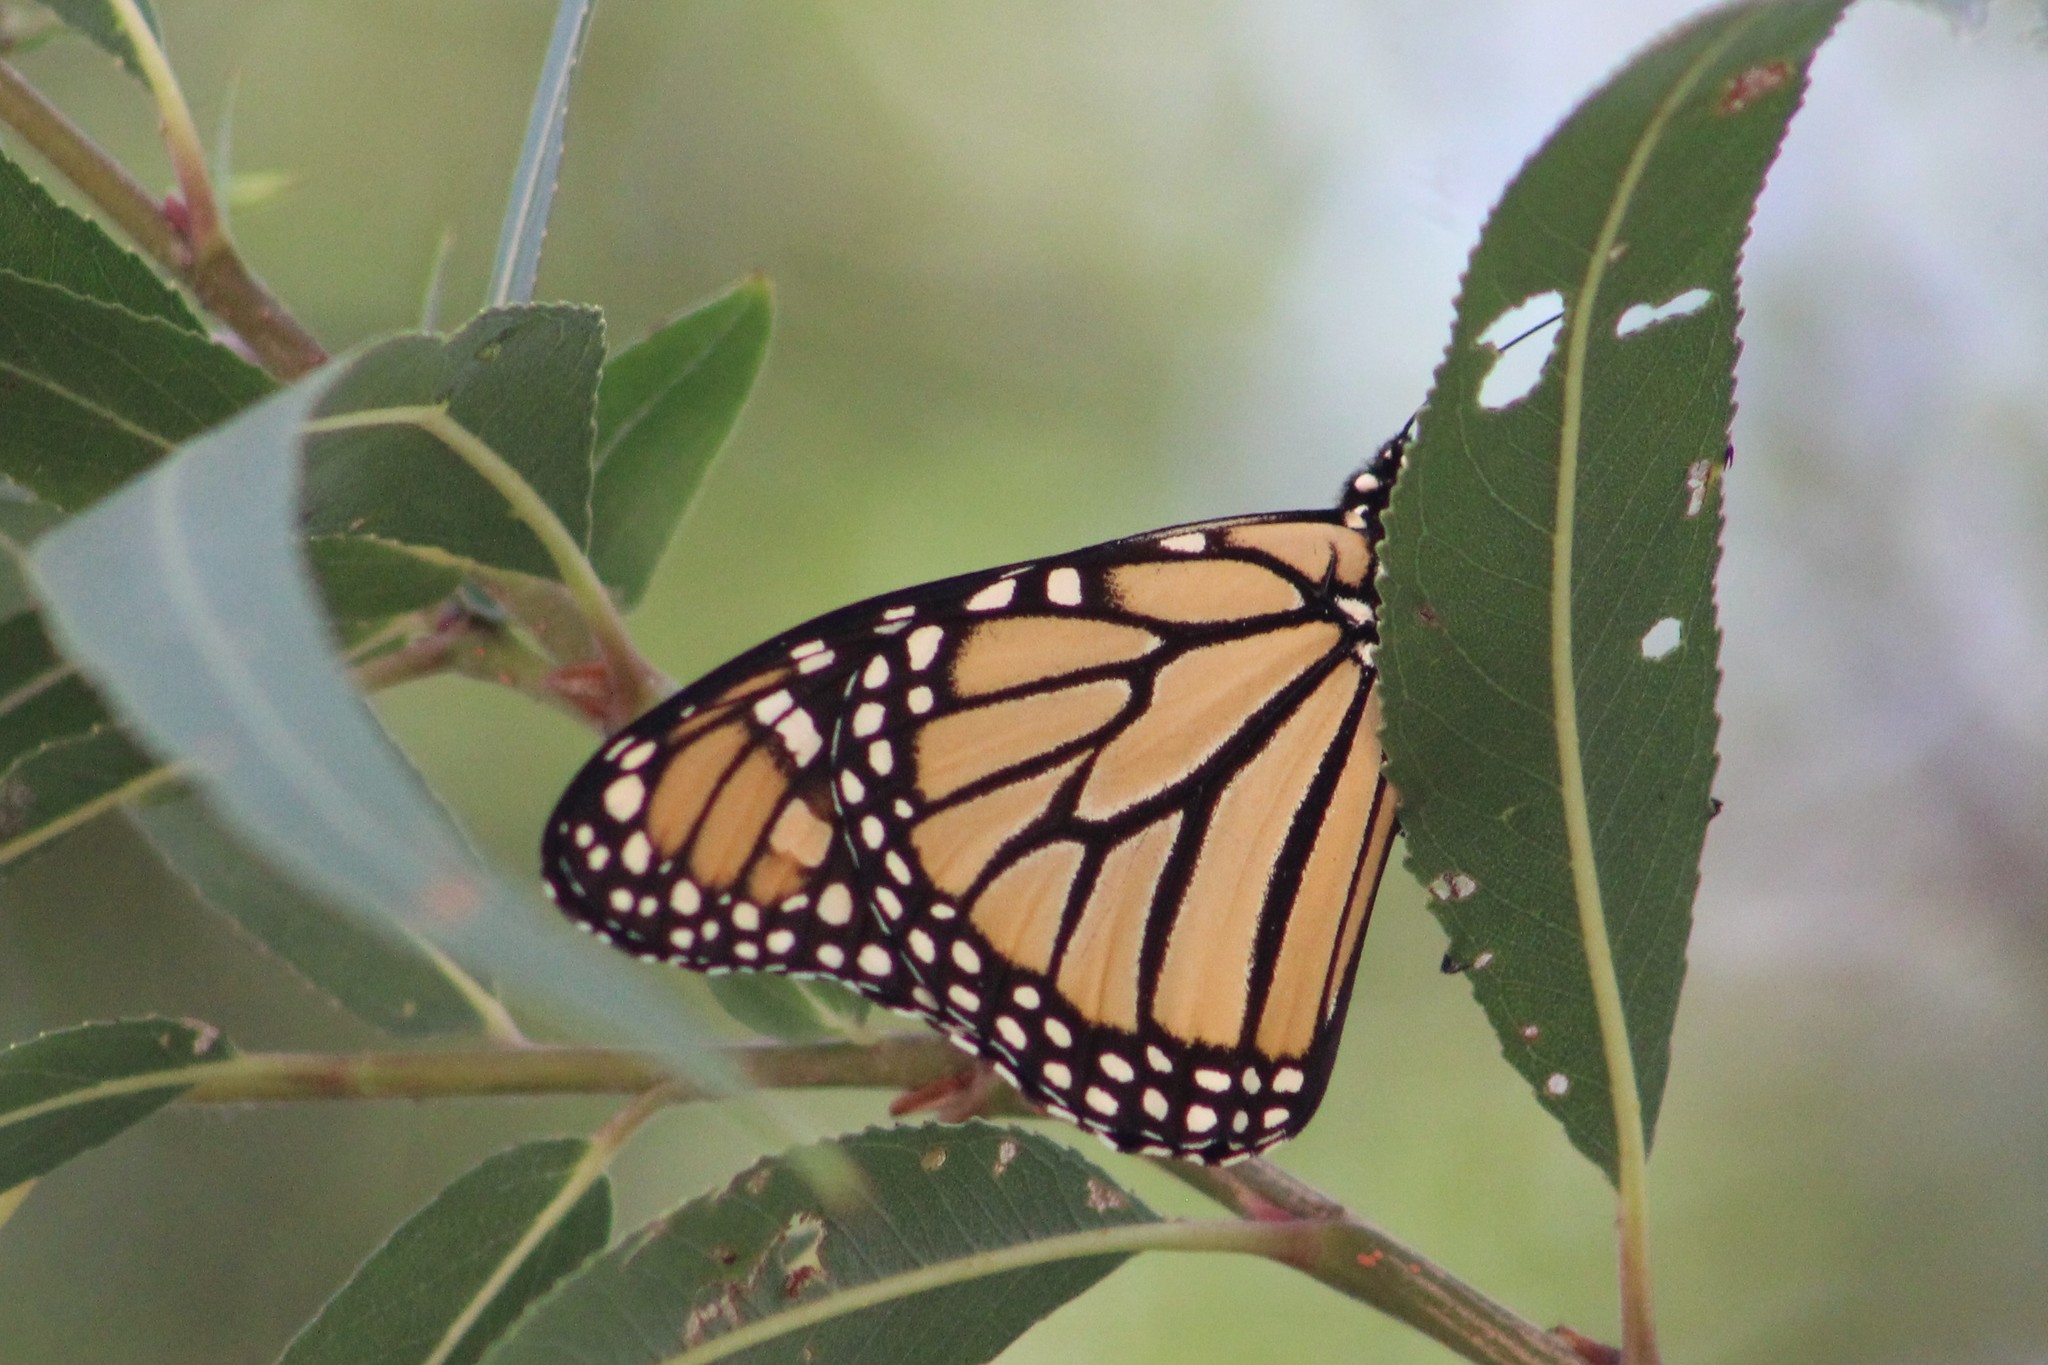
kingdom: Animalia
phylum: Arthropoda
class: Insecta
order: Lepidoptera
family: Nymphalidae
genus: Danaus
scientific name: Danaus plexippus
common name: Monarch
